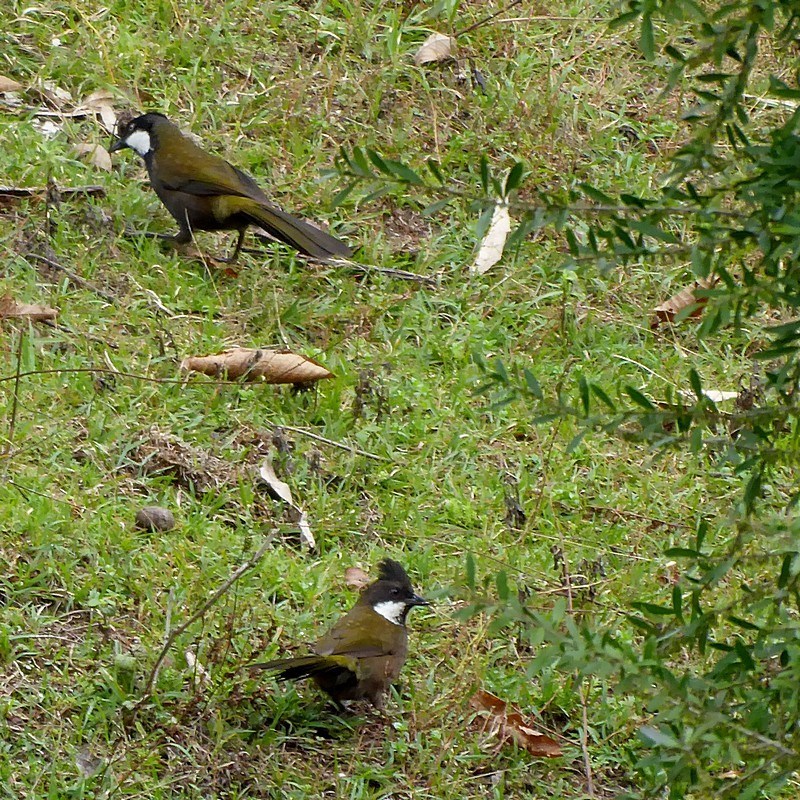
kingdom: Animalia
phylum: Chordata
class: Aves
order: Passeriformes
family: Psophodidae
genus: Psophodes
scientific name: Psophodes olivaceus
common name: Eastern whipbird
